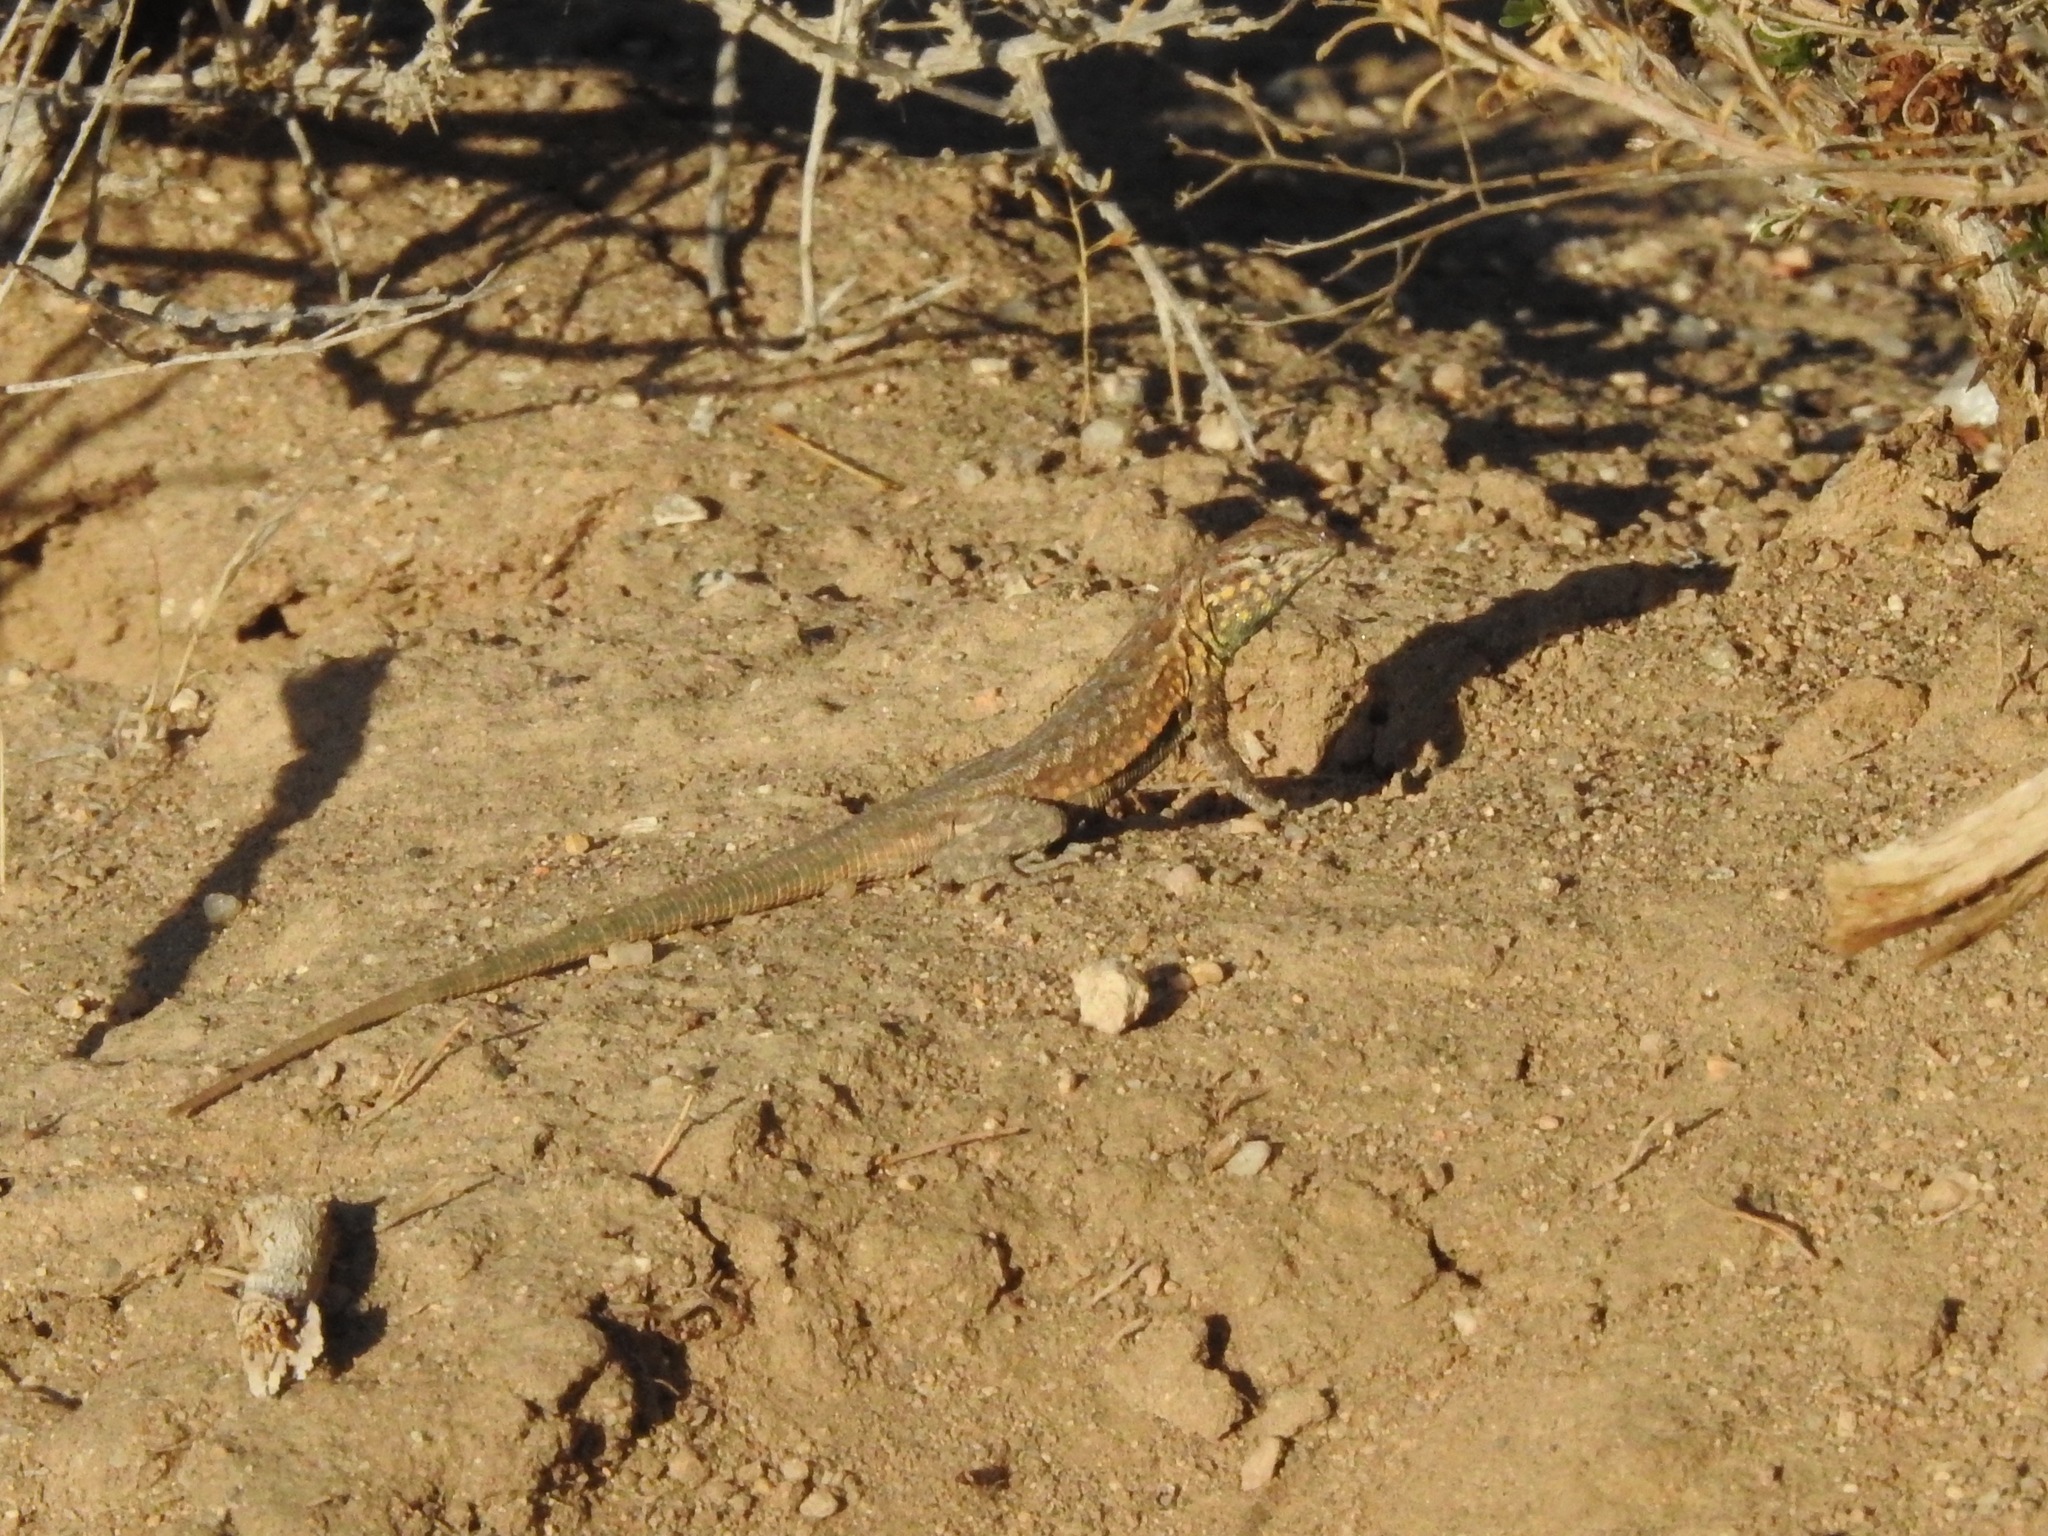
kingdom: Animalia
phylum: Chordata
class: Squamata
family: Phrynosomatidae
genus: Uta
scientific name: Uta stansburiana
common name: Side-blotched lizard
